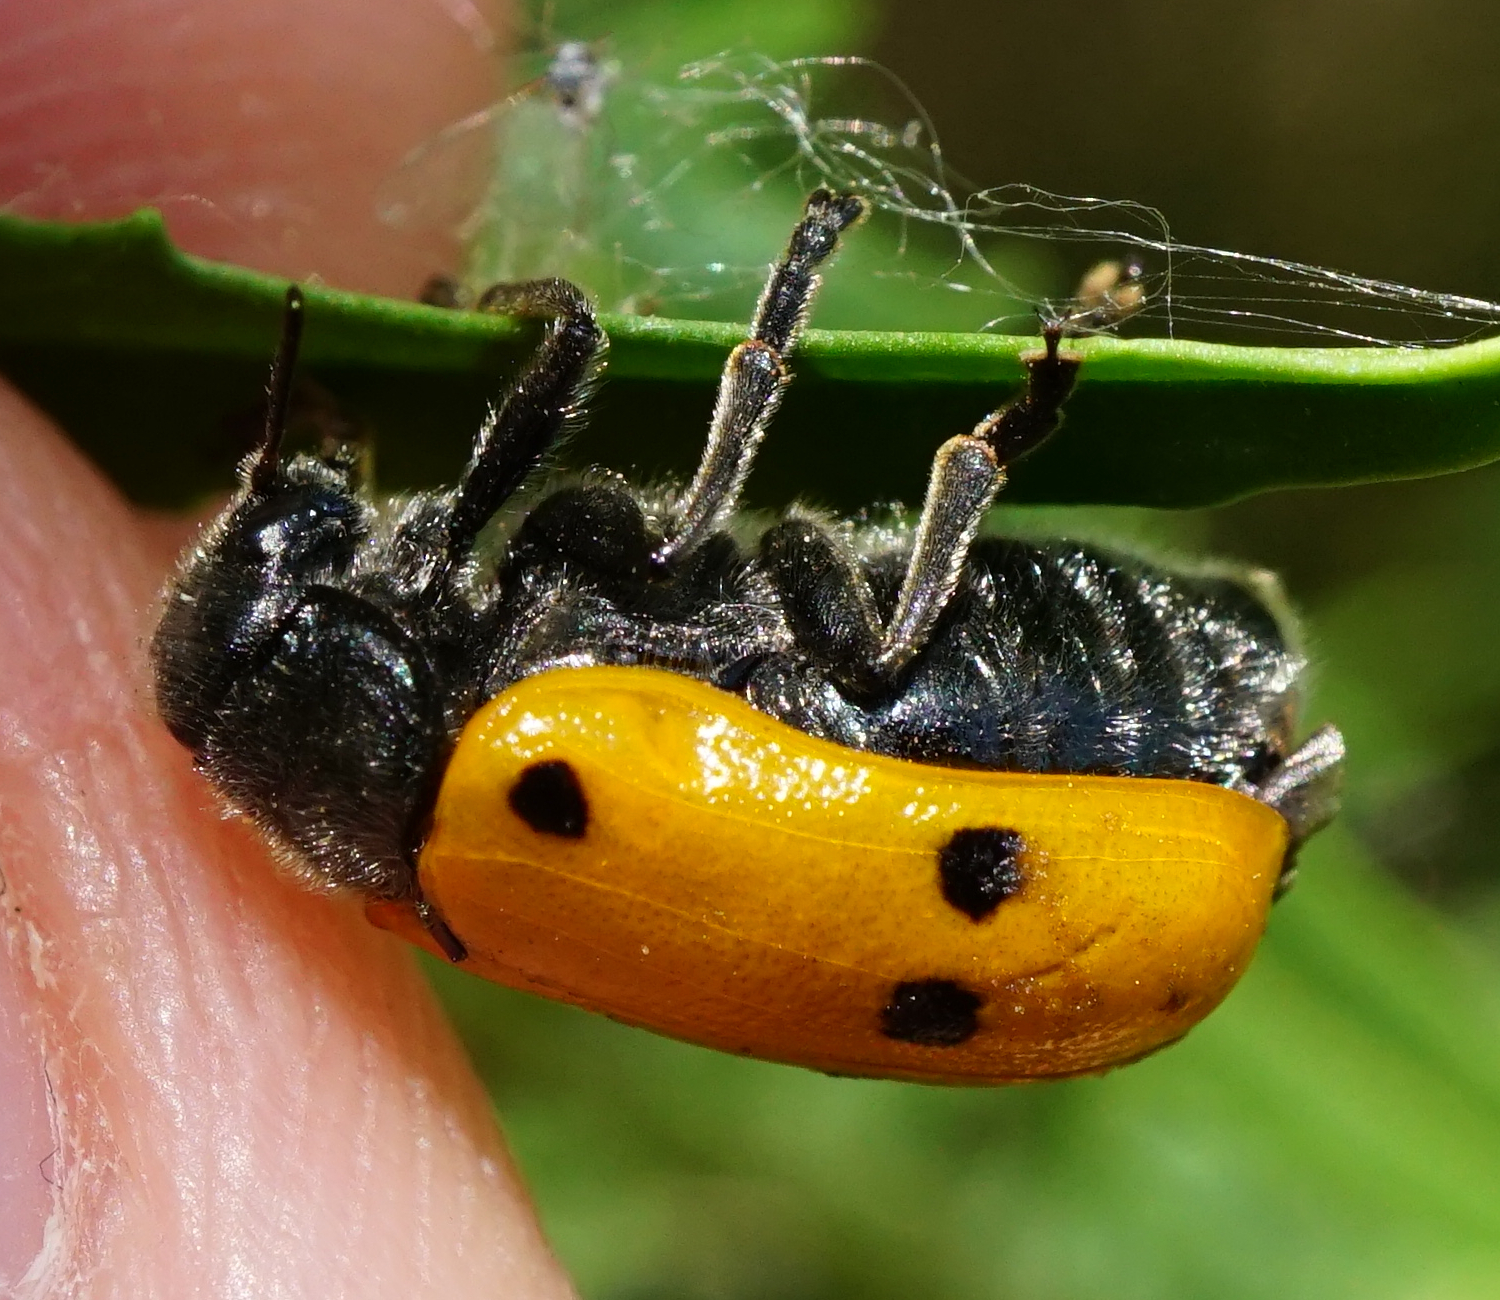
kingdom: Animalia
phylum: Arthropoda
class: Insecta
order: Coleoptera
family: Chrysomelidae
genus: Lachnaia
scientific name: Lachnaia sexpunctata
